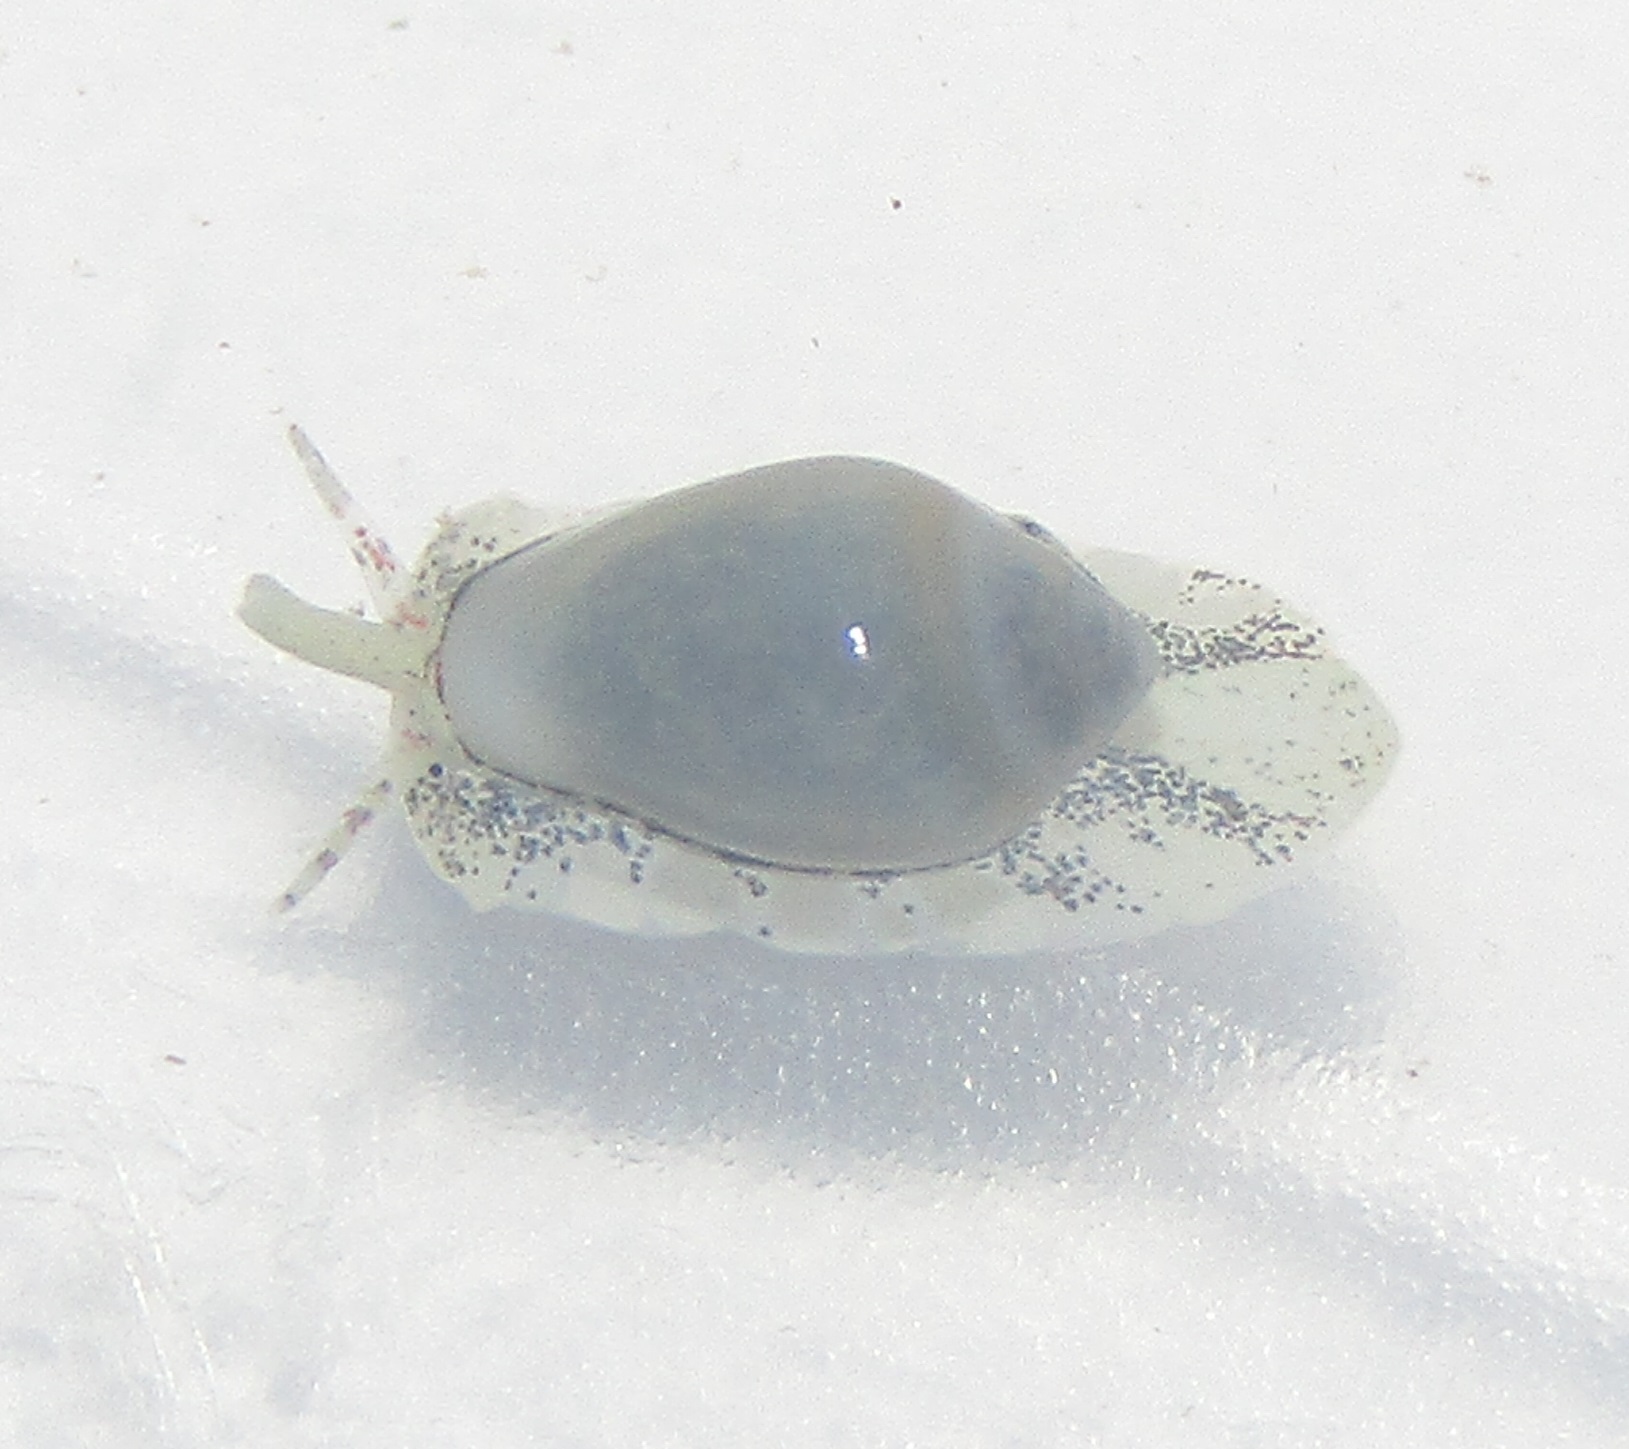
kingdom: Animalia
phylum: Mollusca
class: Gastropoda
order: Neogastropoda
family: Marginellidae
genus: Mesoginella
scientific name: Mesoginella
